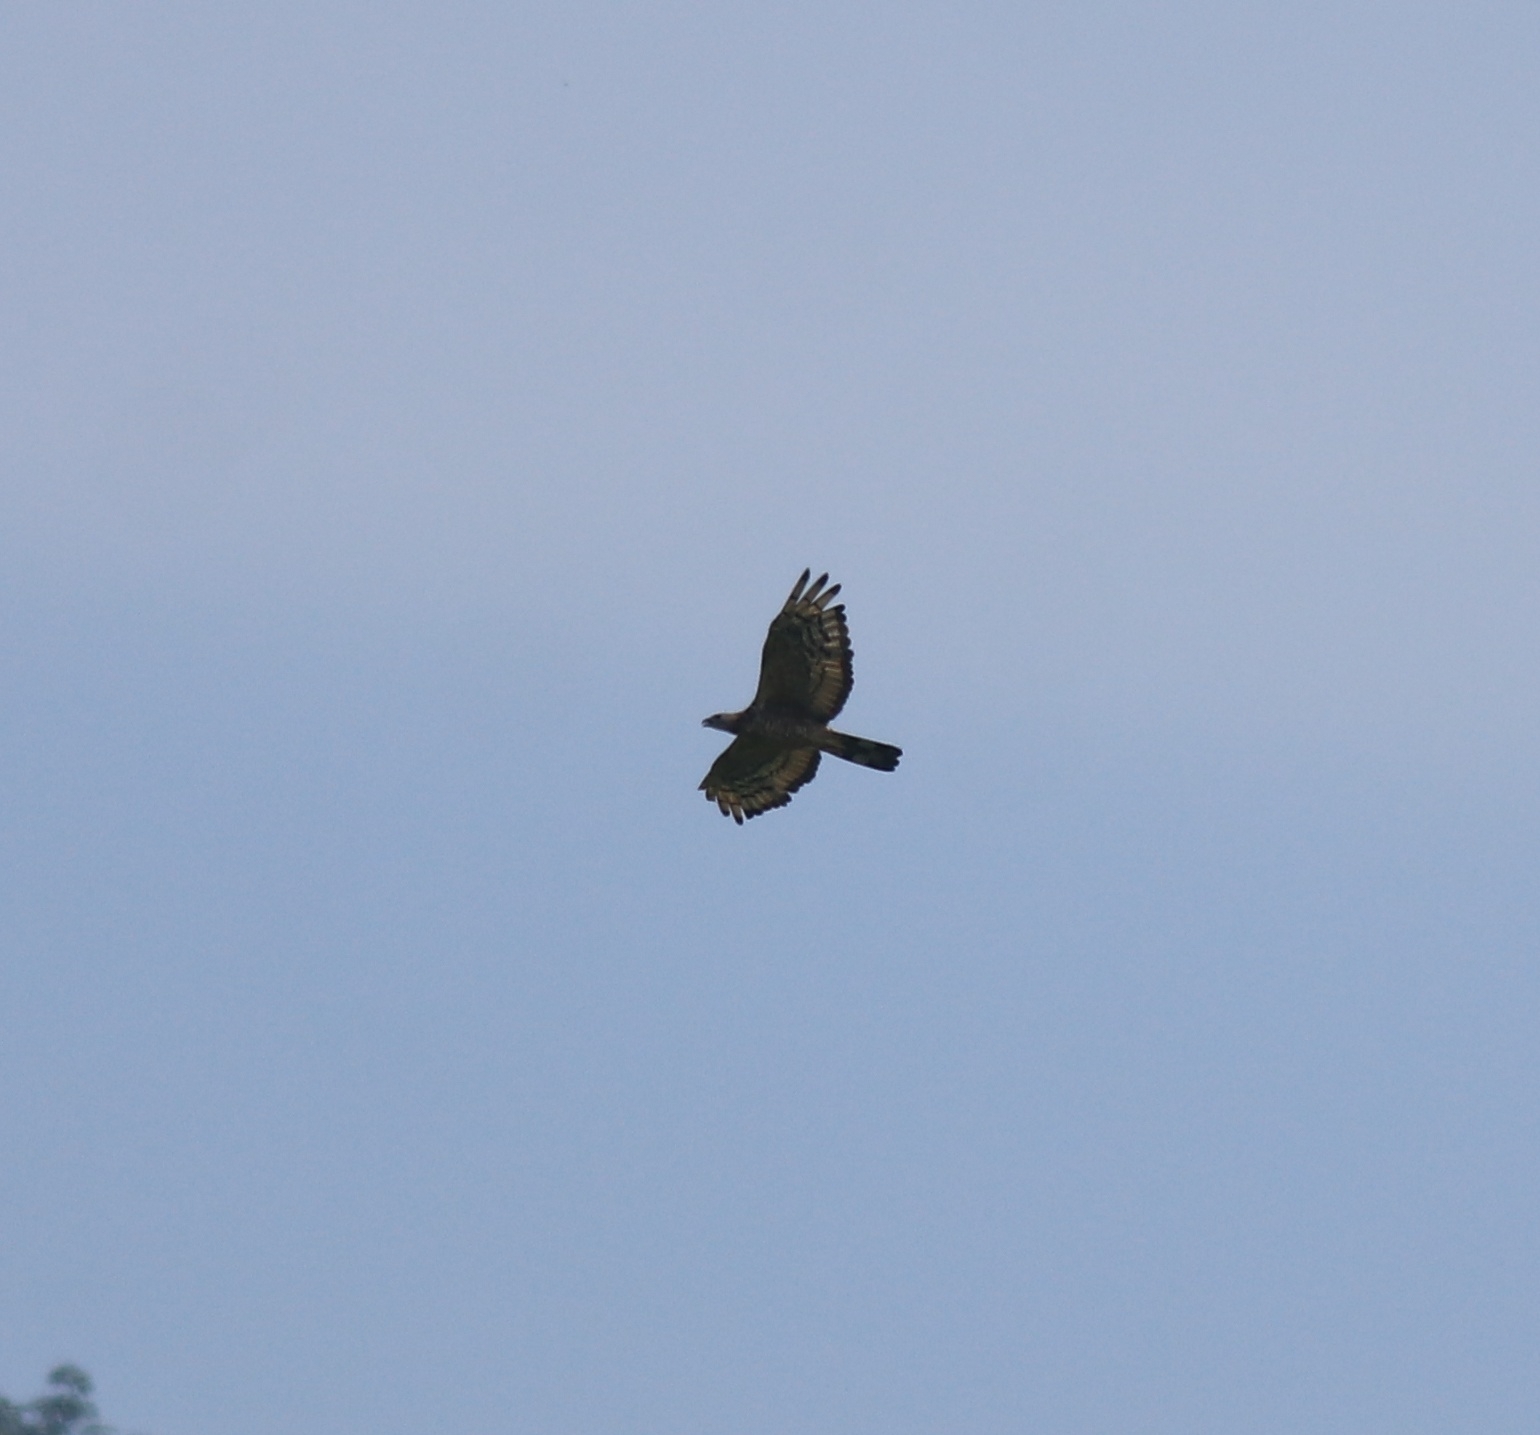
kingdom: Animalia
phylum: Chordata
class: Aves
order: Accipitriformes
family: Accipitridae
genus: Pernis
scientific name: Pernis ptilorhynchus
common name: Crested honey buzzard
